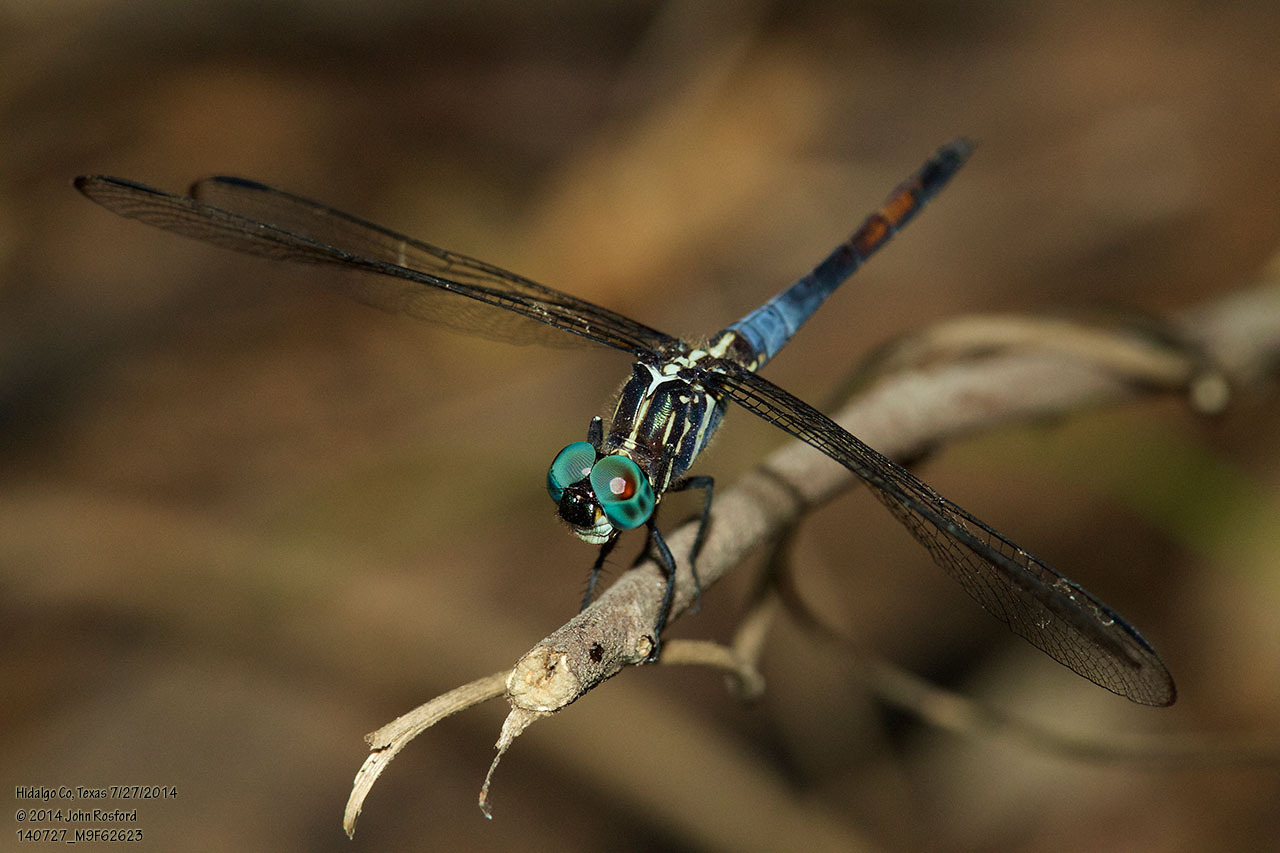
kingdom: Animalia
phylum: Arthropoda
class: Insecta
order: Odonata
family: Libellulidae
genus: Cannaphila
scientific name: Cannaphila insularis
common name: Gray-waisted skimmer
